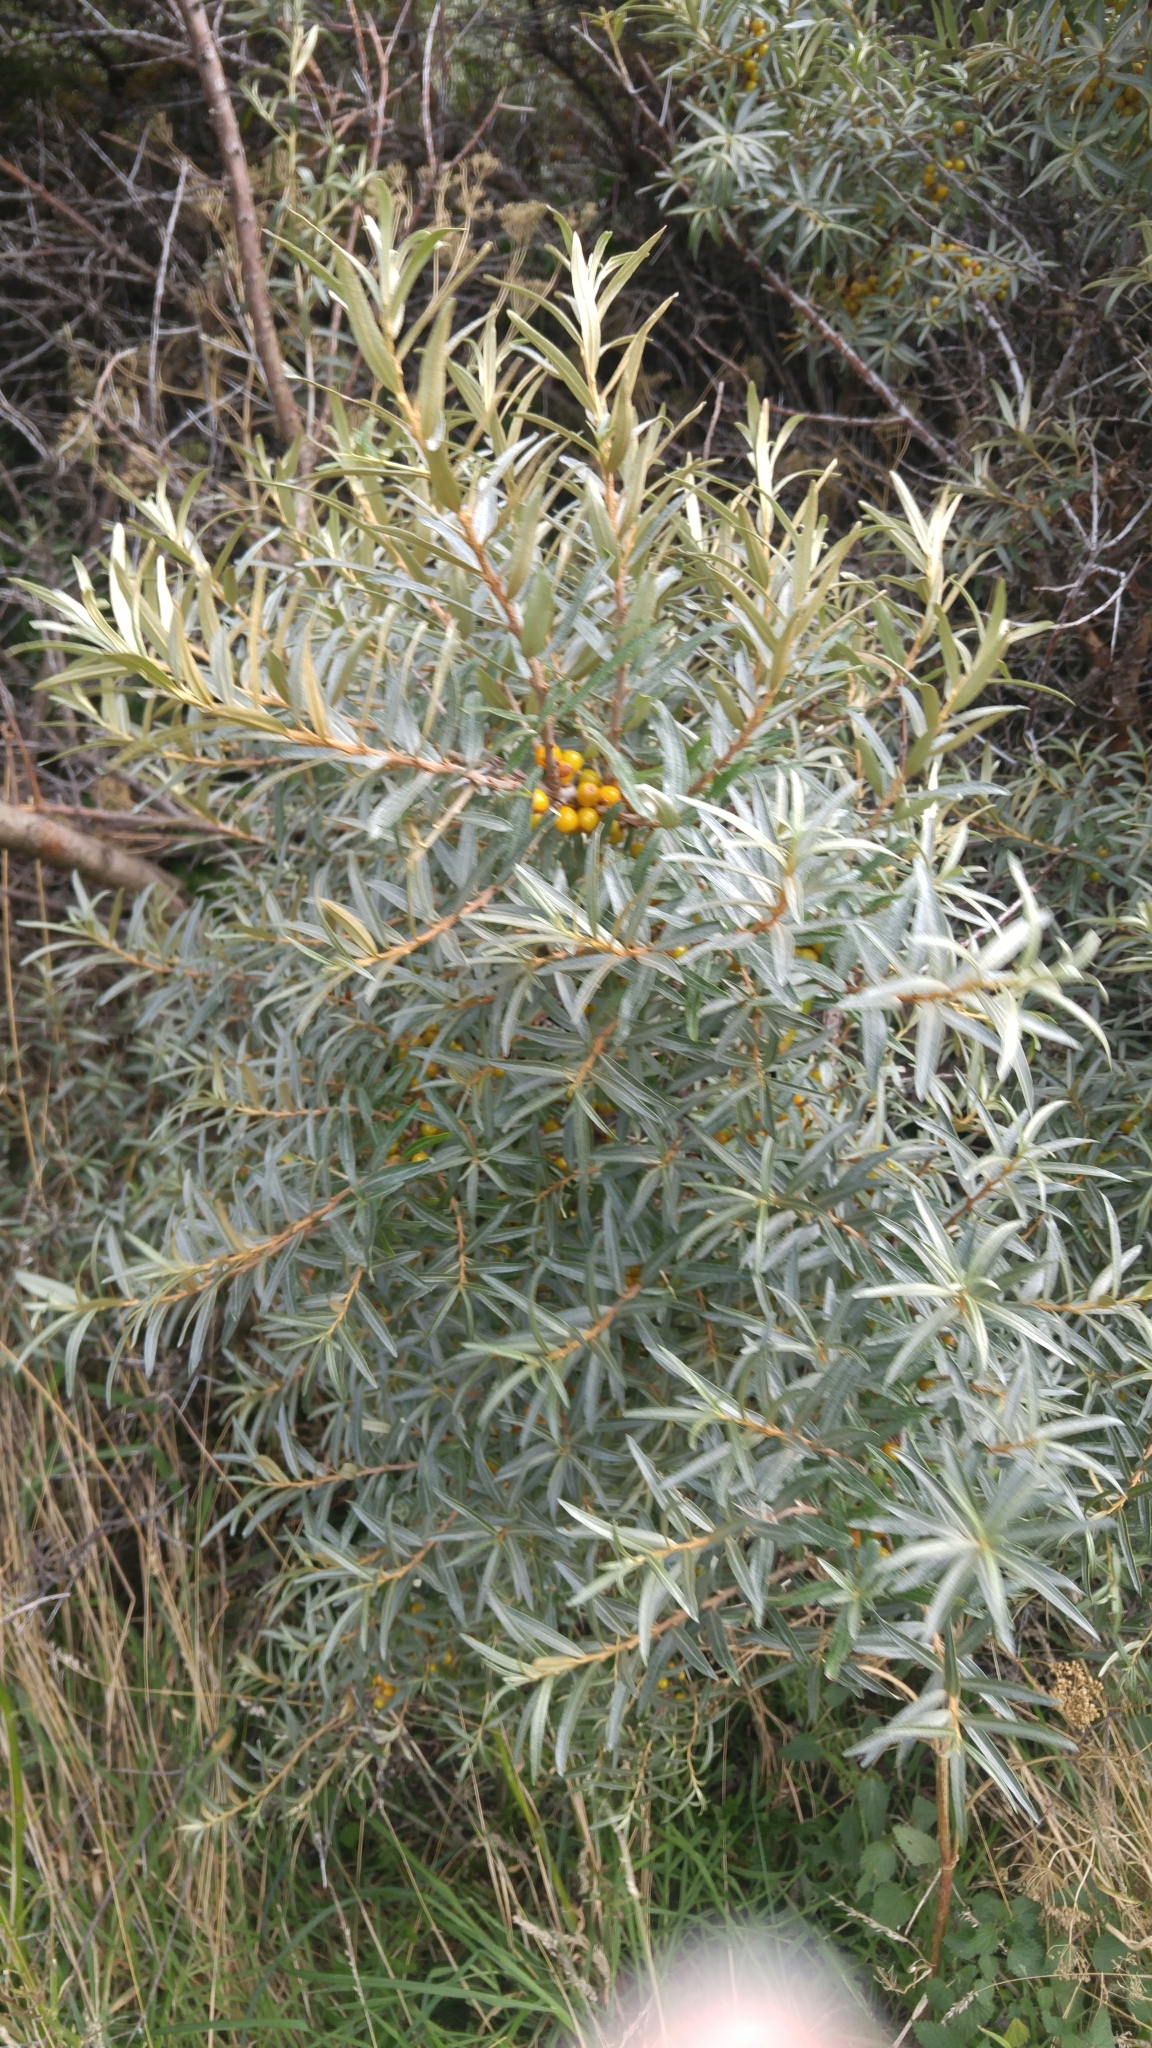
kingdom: Plantae
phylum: Tracheophyta
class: Magnoliopsida
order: Rosales
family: Elaeagnaceae
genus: Hippophae
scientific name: Hippophae rhamnoides
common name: Sea-buckthorn
